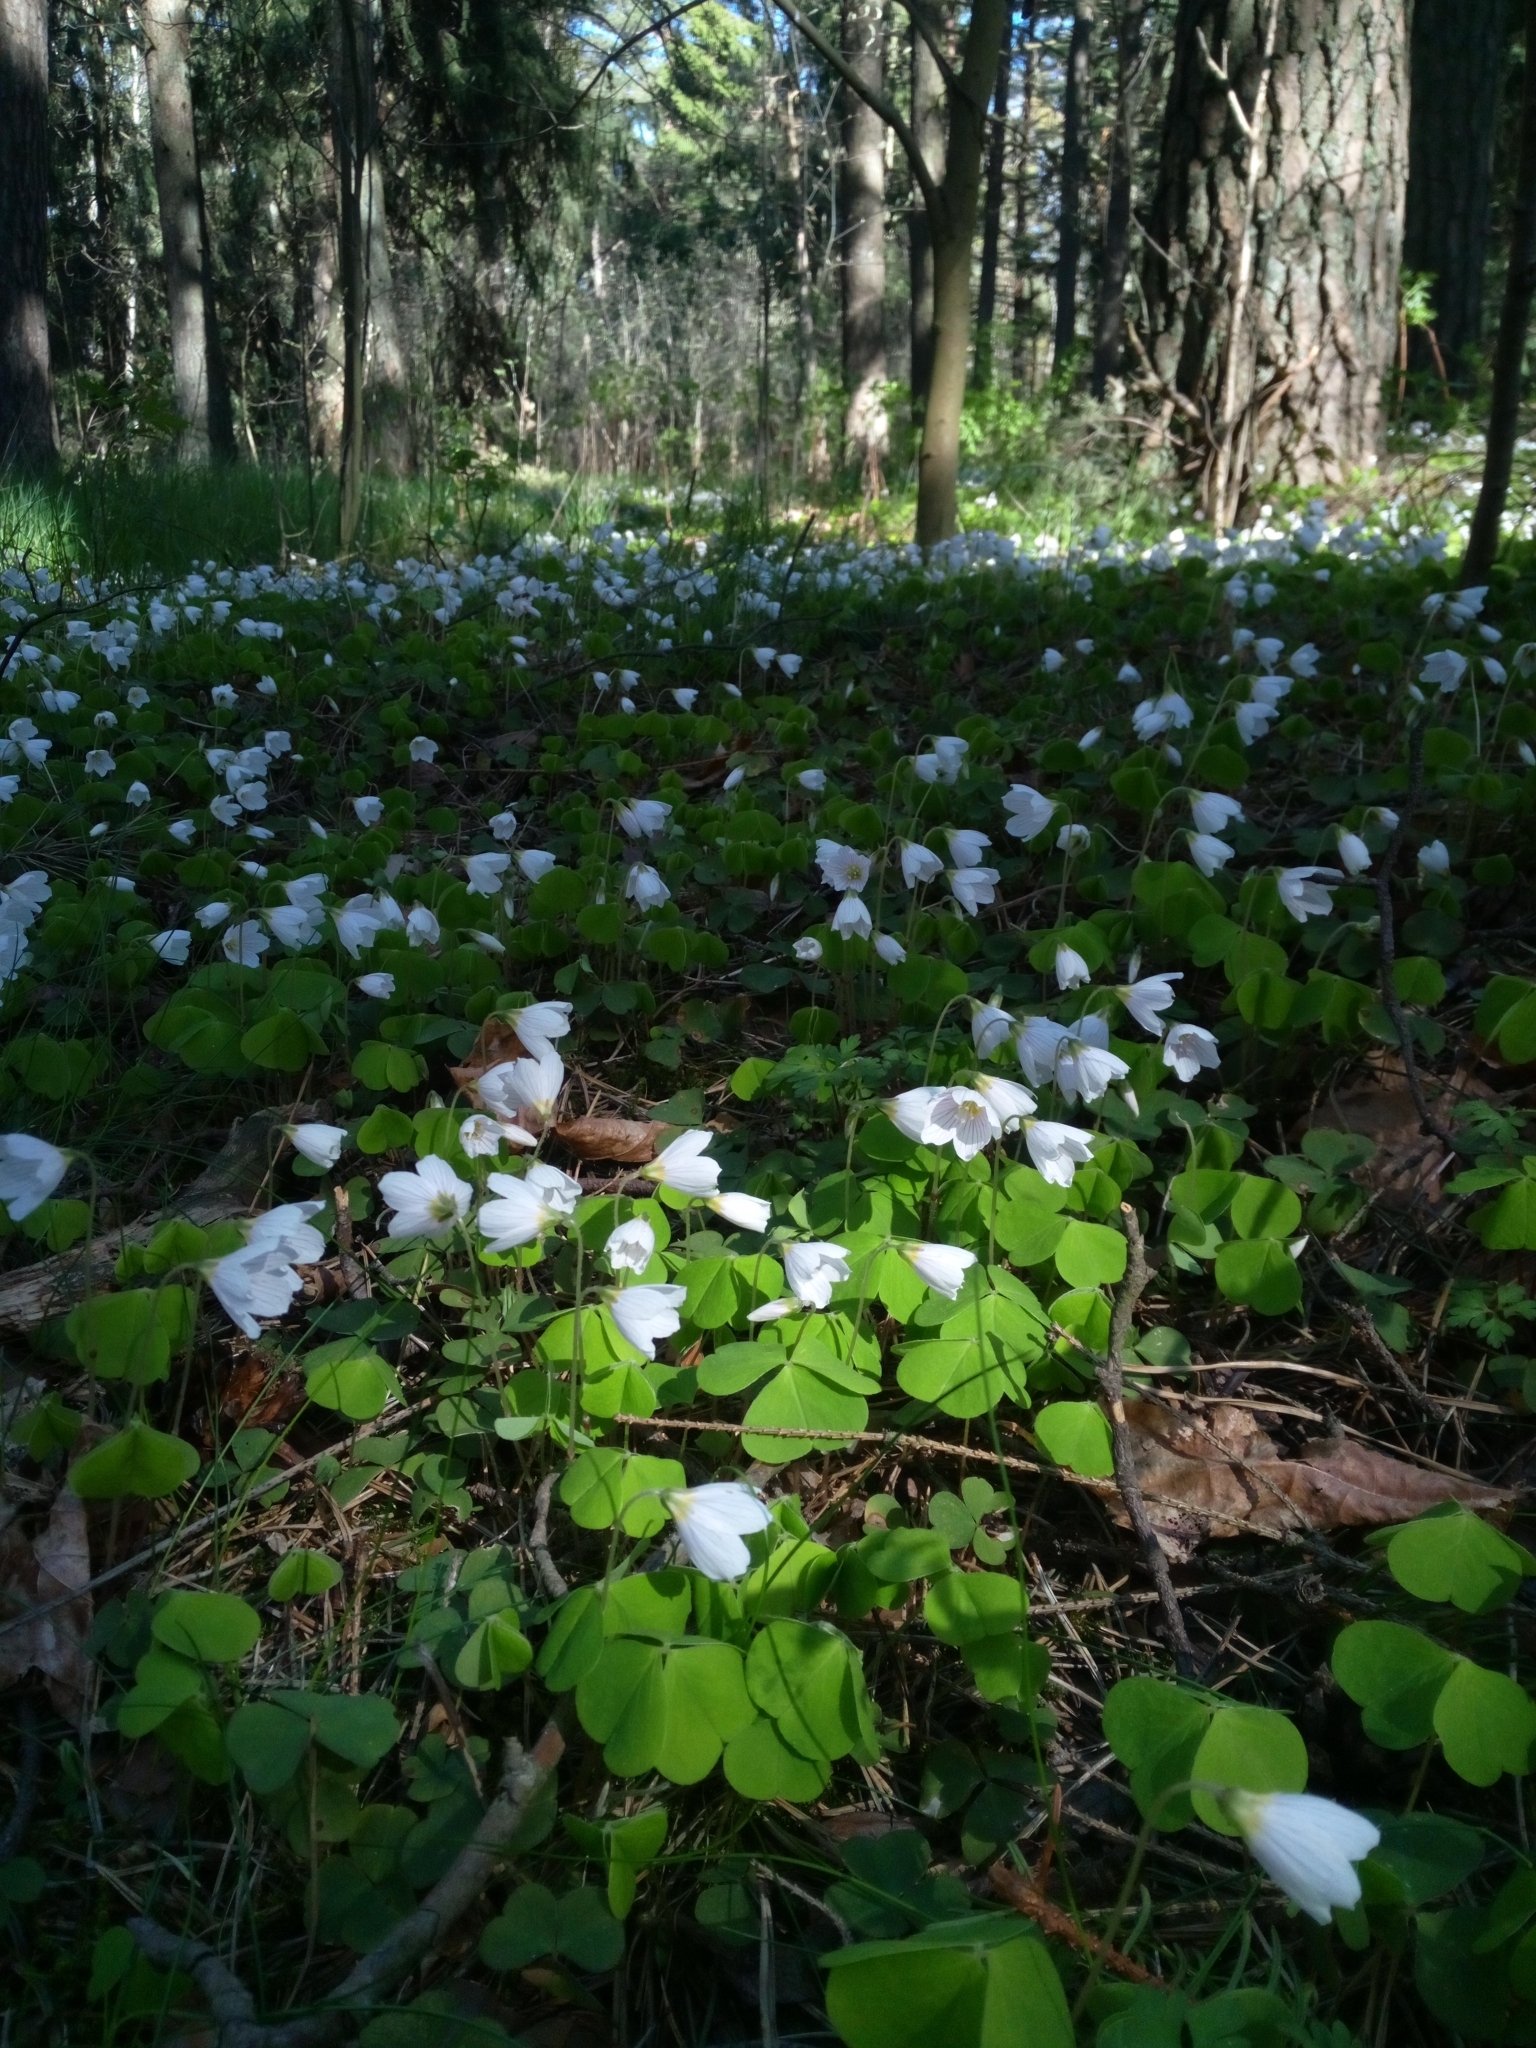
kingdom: Plantae
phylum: Tracheophyta
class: Magnoliopsida
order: Oxalidales
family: Oxalidaceae
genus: Oxalis
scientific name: Oxalis acetosella
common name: Wood-sorrel
